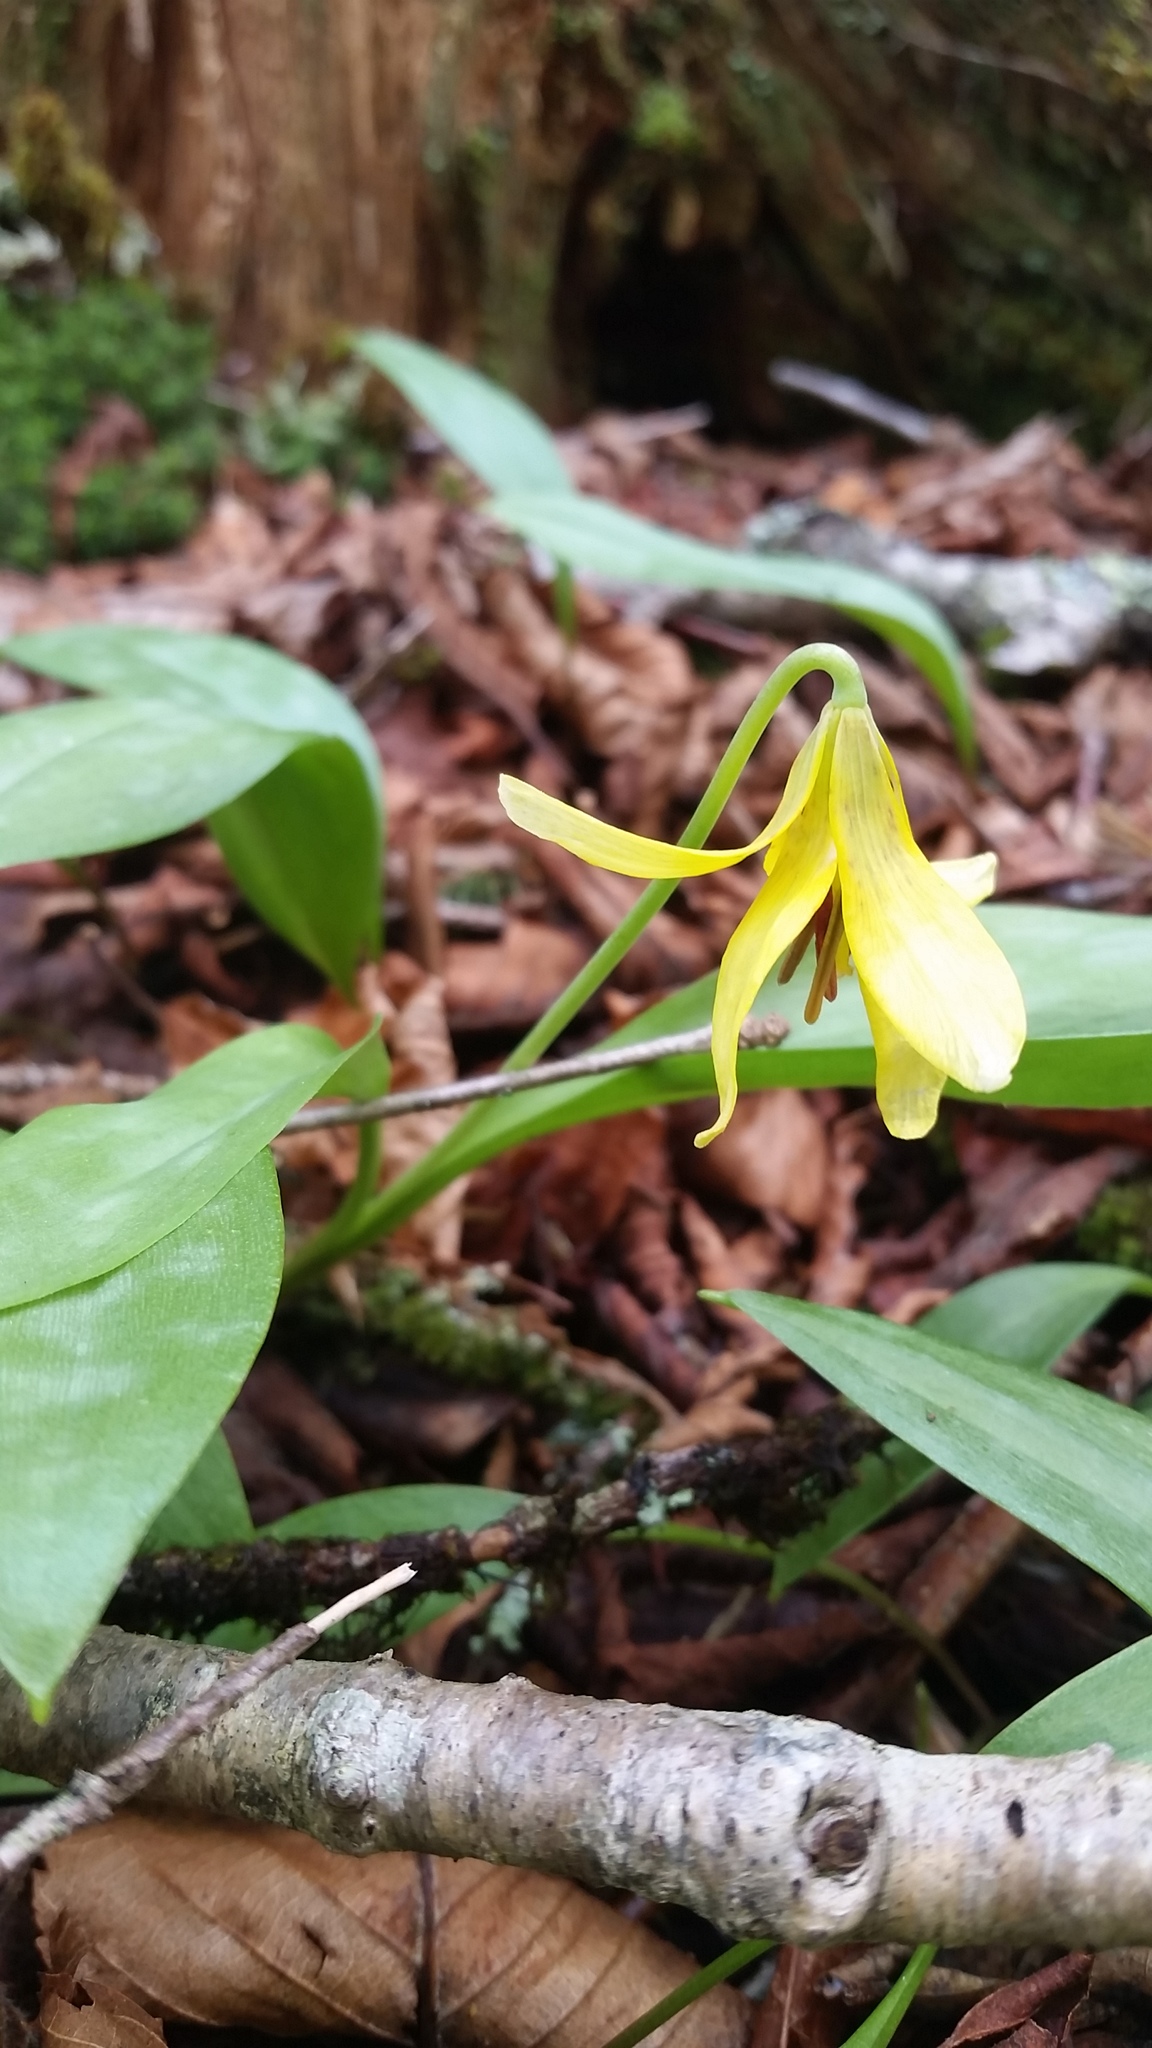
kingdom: Plantae
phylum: Tracheophyta
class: Liliopsida
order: Liliales
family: Liliaceae
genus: Erythronium
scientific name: Erythronium umbilicatum
